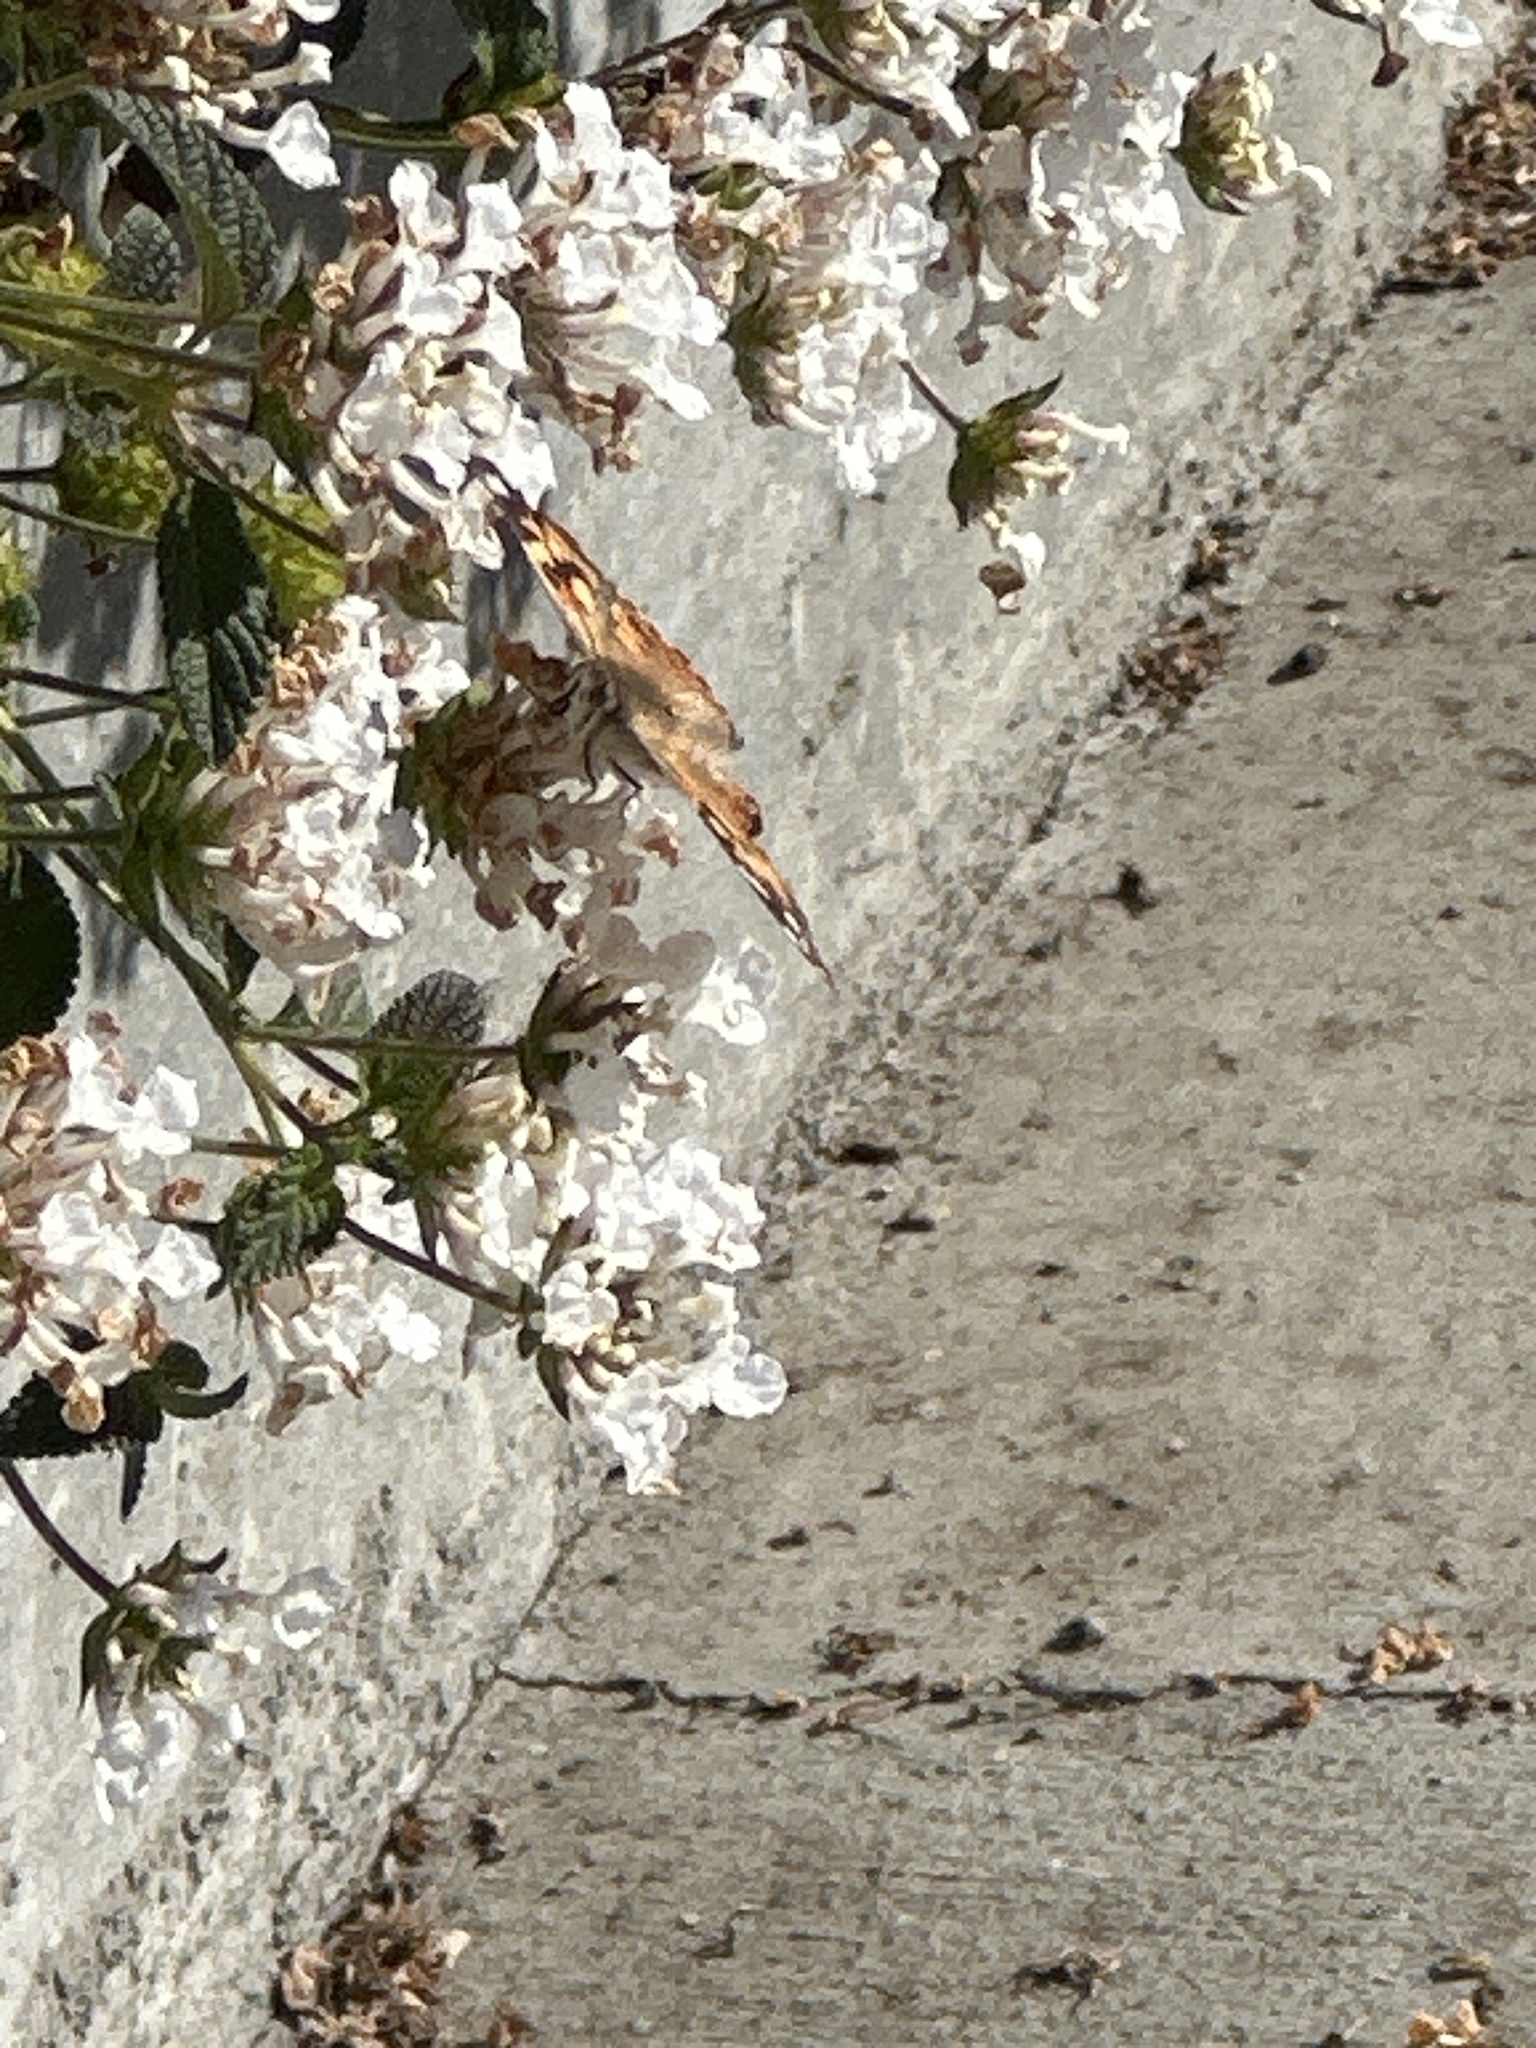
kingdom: Animalia
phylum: Arthropoda
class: Insecta
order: Lepidoptera
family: Nymphalidae
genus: Vanessa
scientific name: Vanessa cardui
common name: Painted lady
